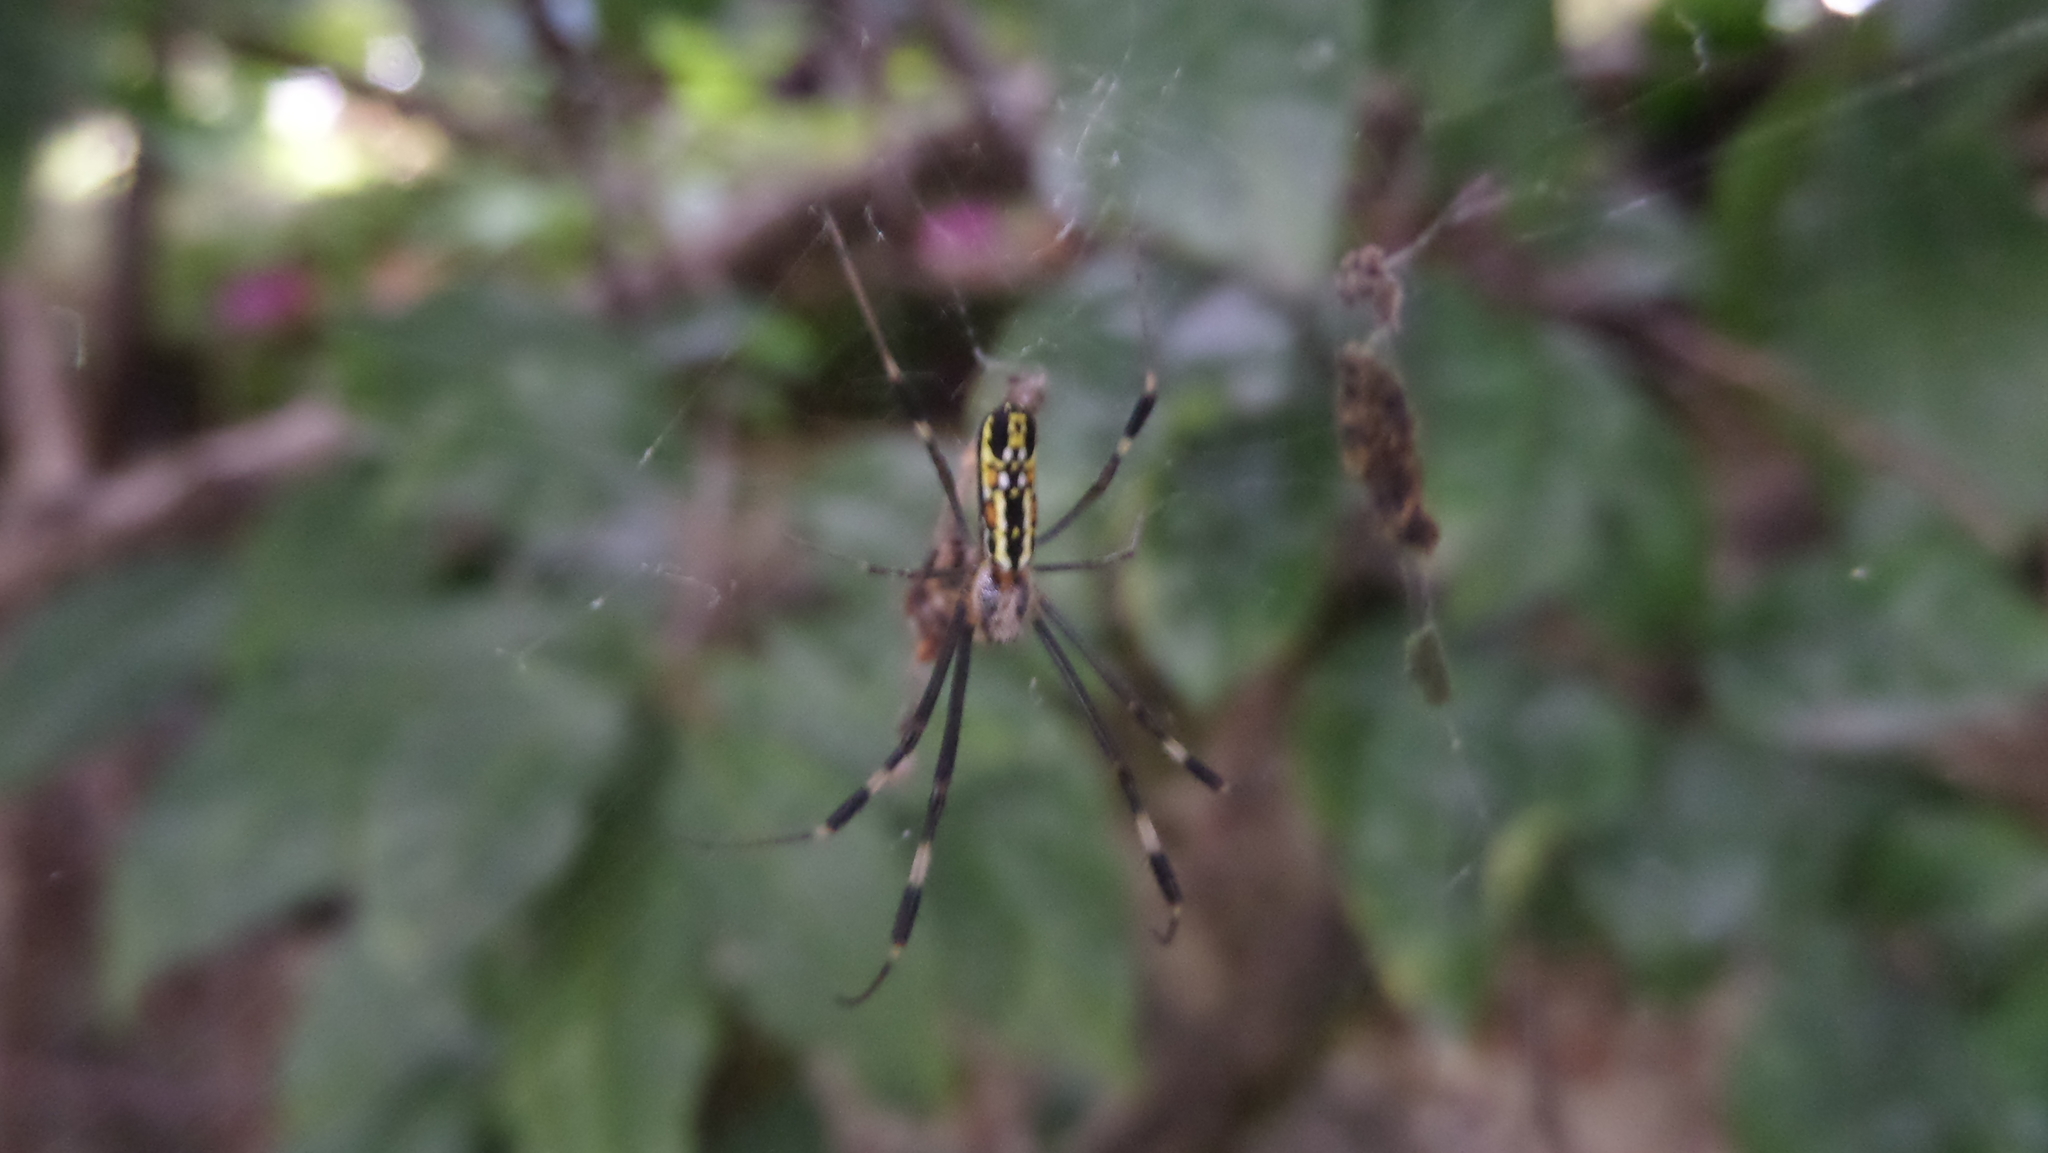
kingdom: Animalia
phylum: Arthropoda
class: Arachnida
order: Araneae
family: Araneidae
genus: Trichonephila
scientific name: Trichonephila clavipes
